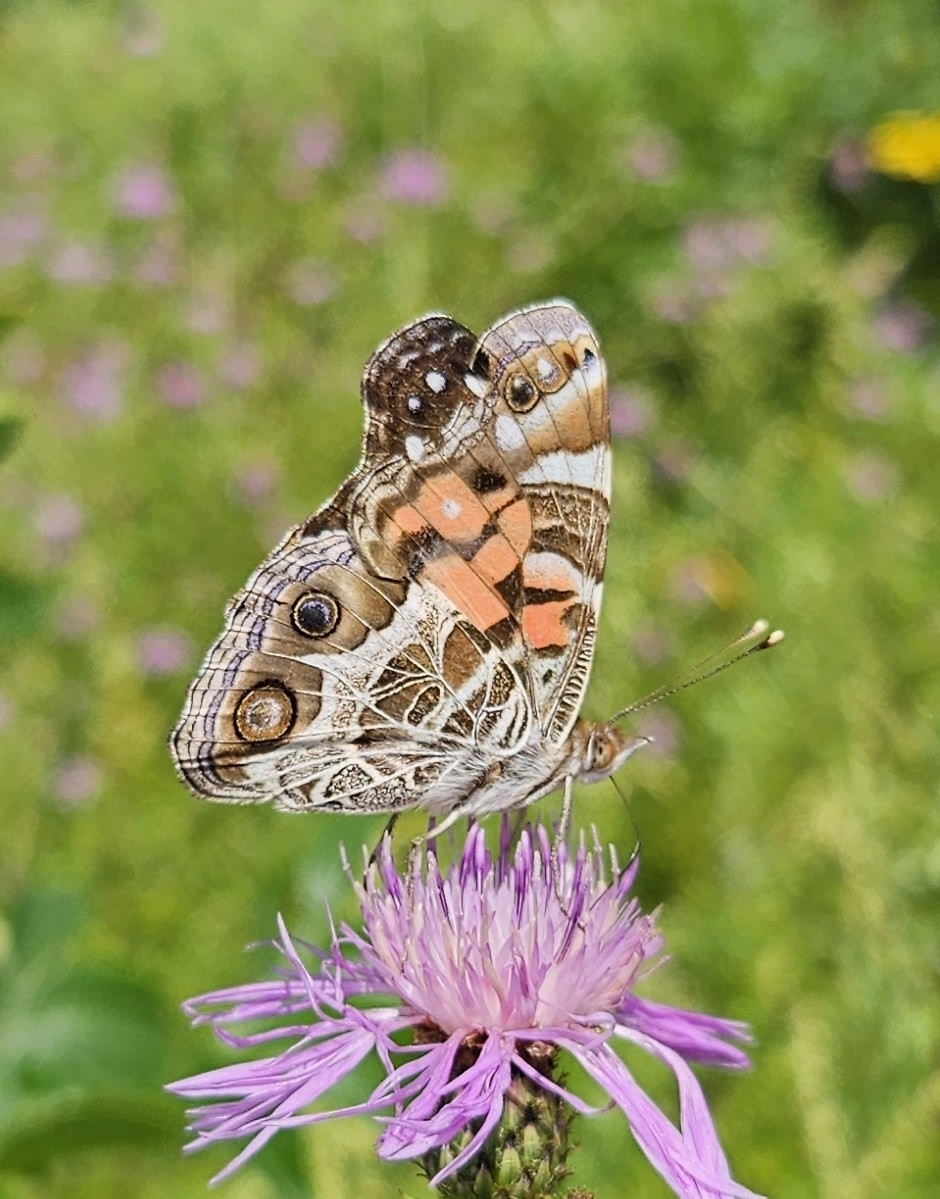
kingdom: Animalia
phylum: Arthropoda
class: Insecta
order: Lepidoptera
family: Nymphalidae
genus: Vanessa
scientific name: Vanessa virginiensis
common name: American lady
